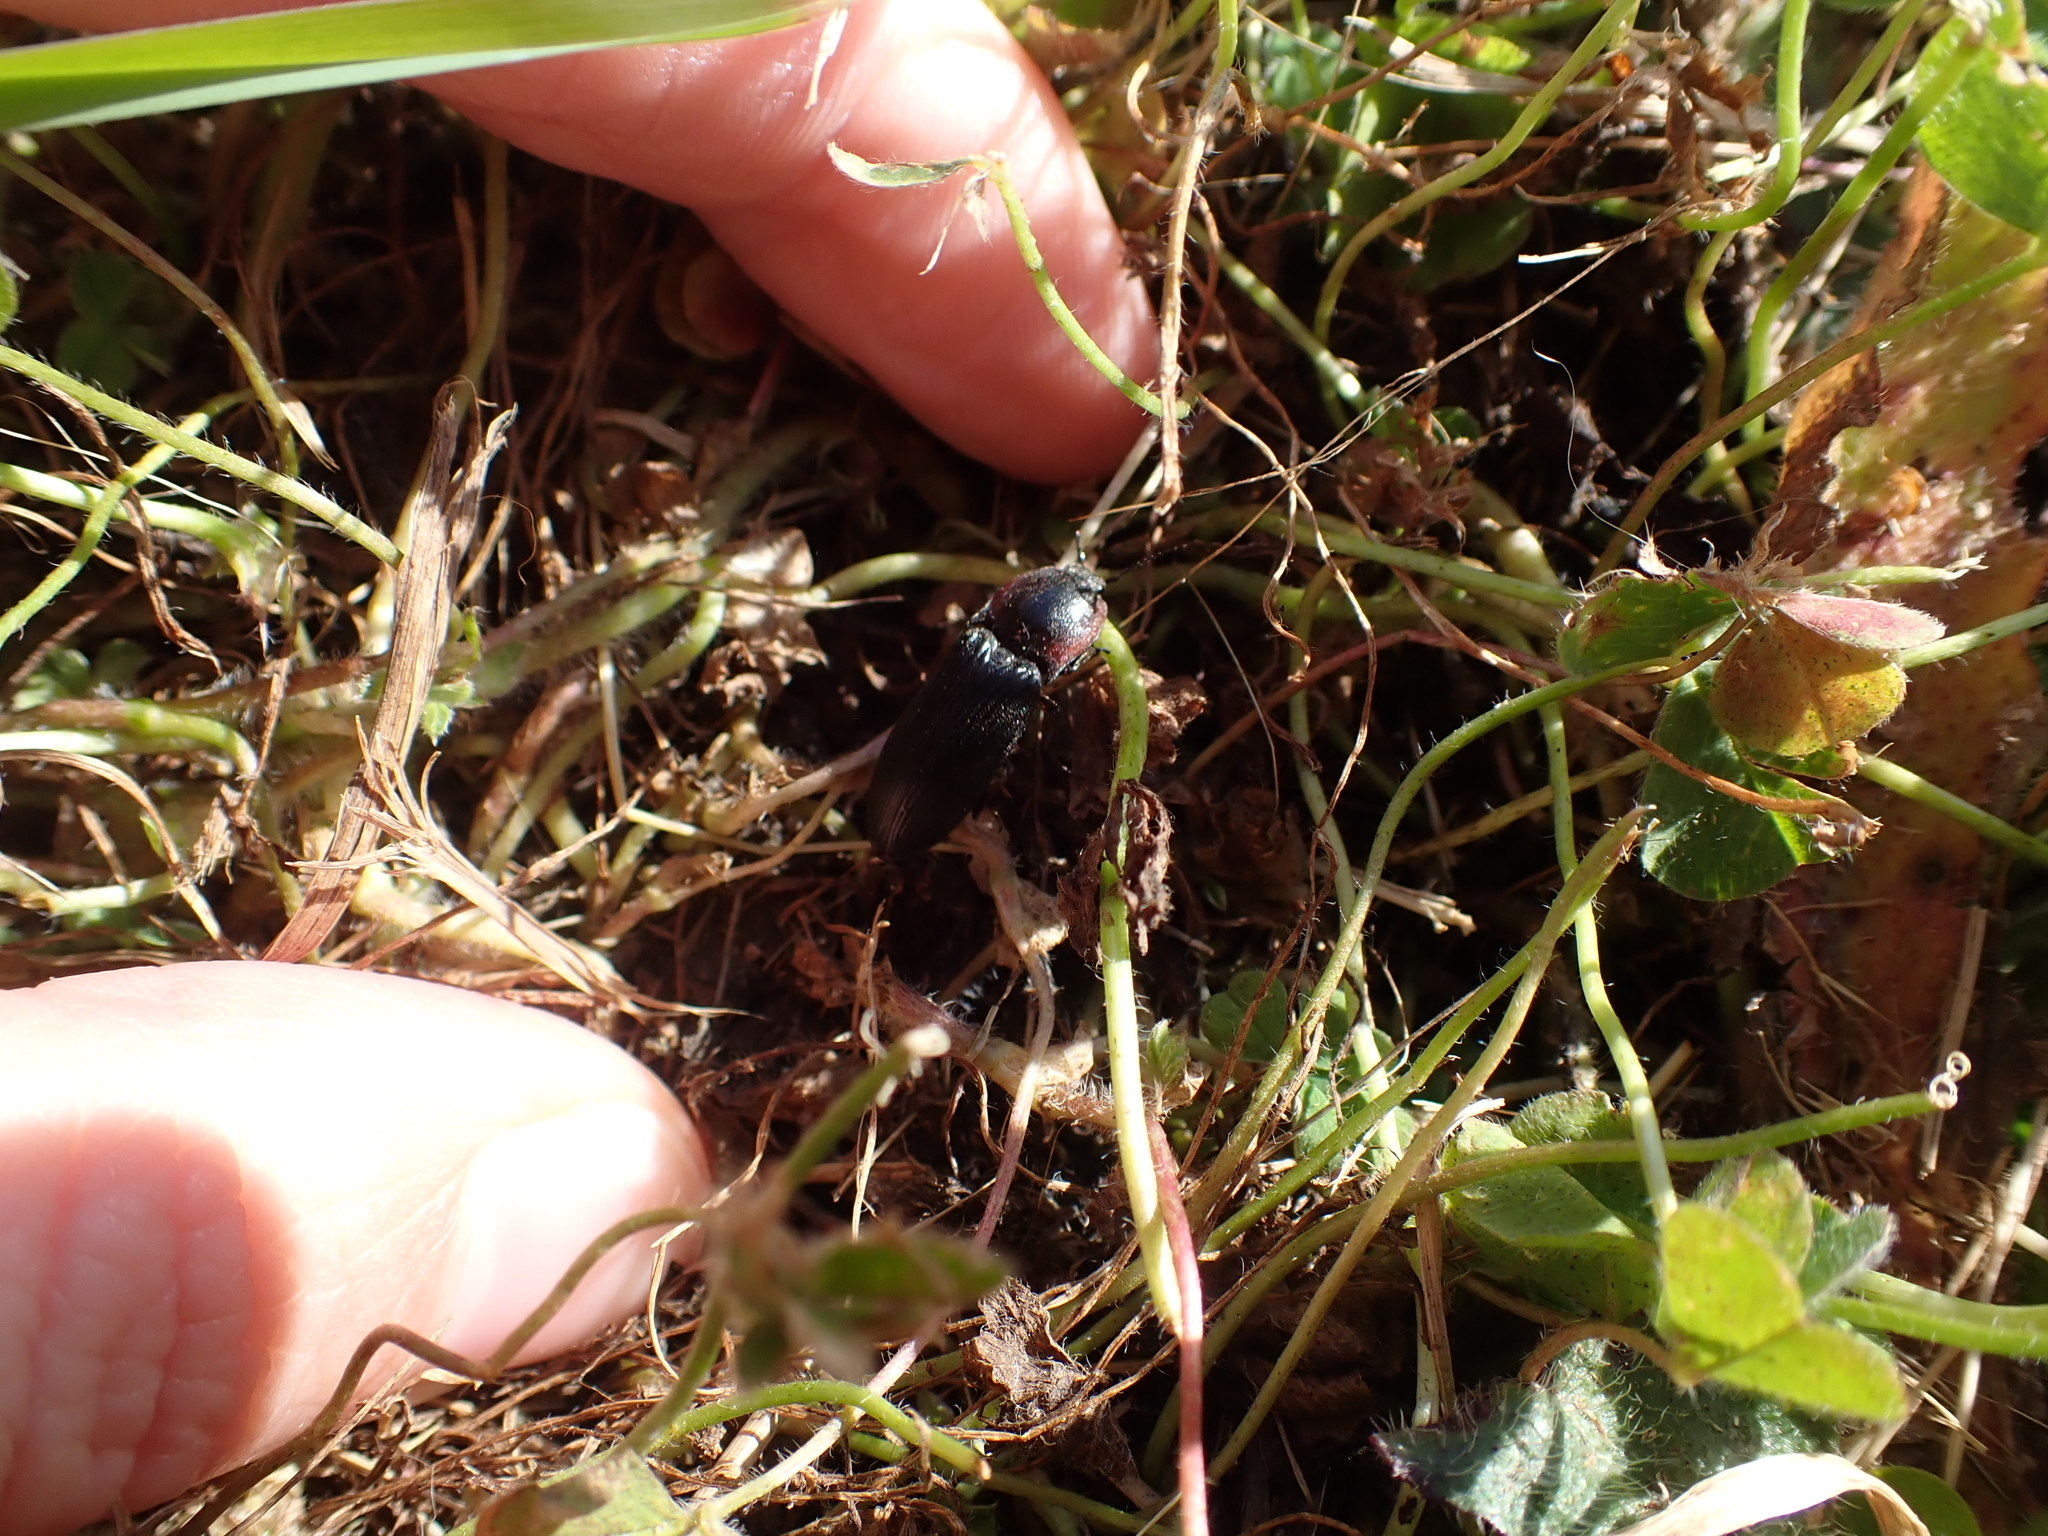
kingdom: Animalia
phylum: Arthropoda
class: Insecta
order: Coleoptera
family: Elateridae
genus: Selatosomus
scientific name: Selatosomus lateralis
